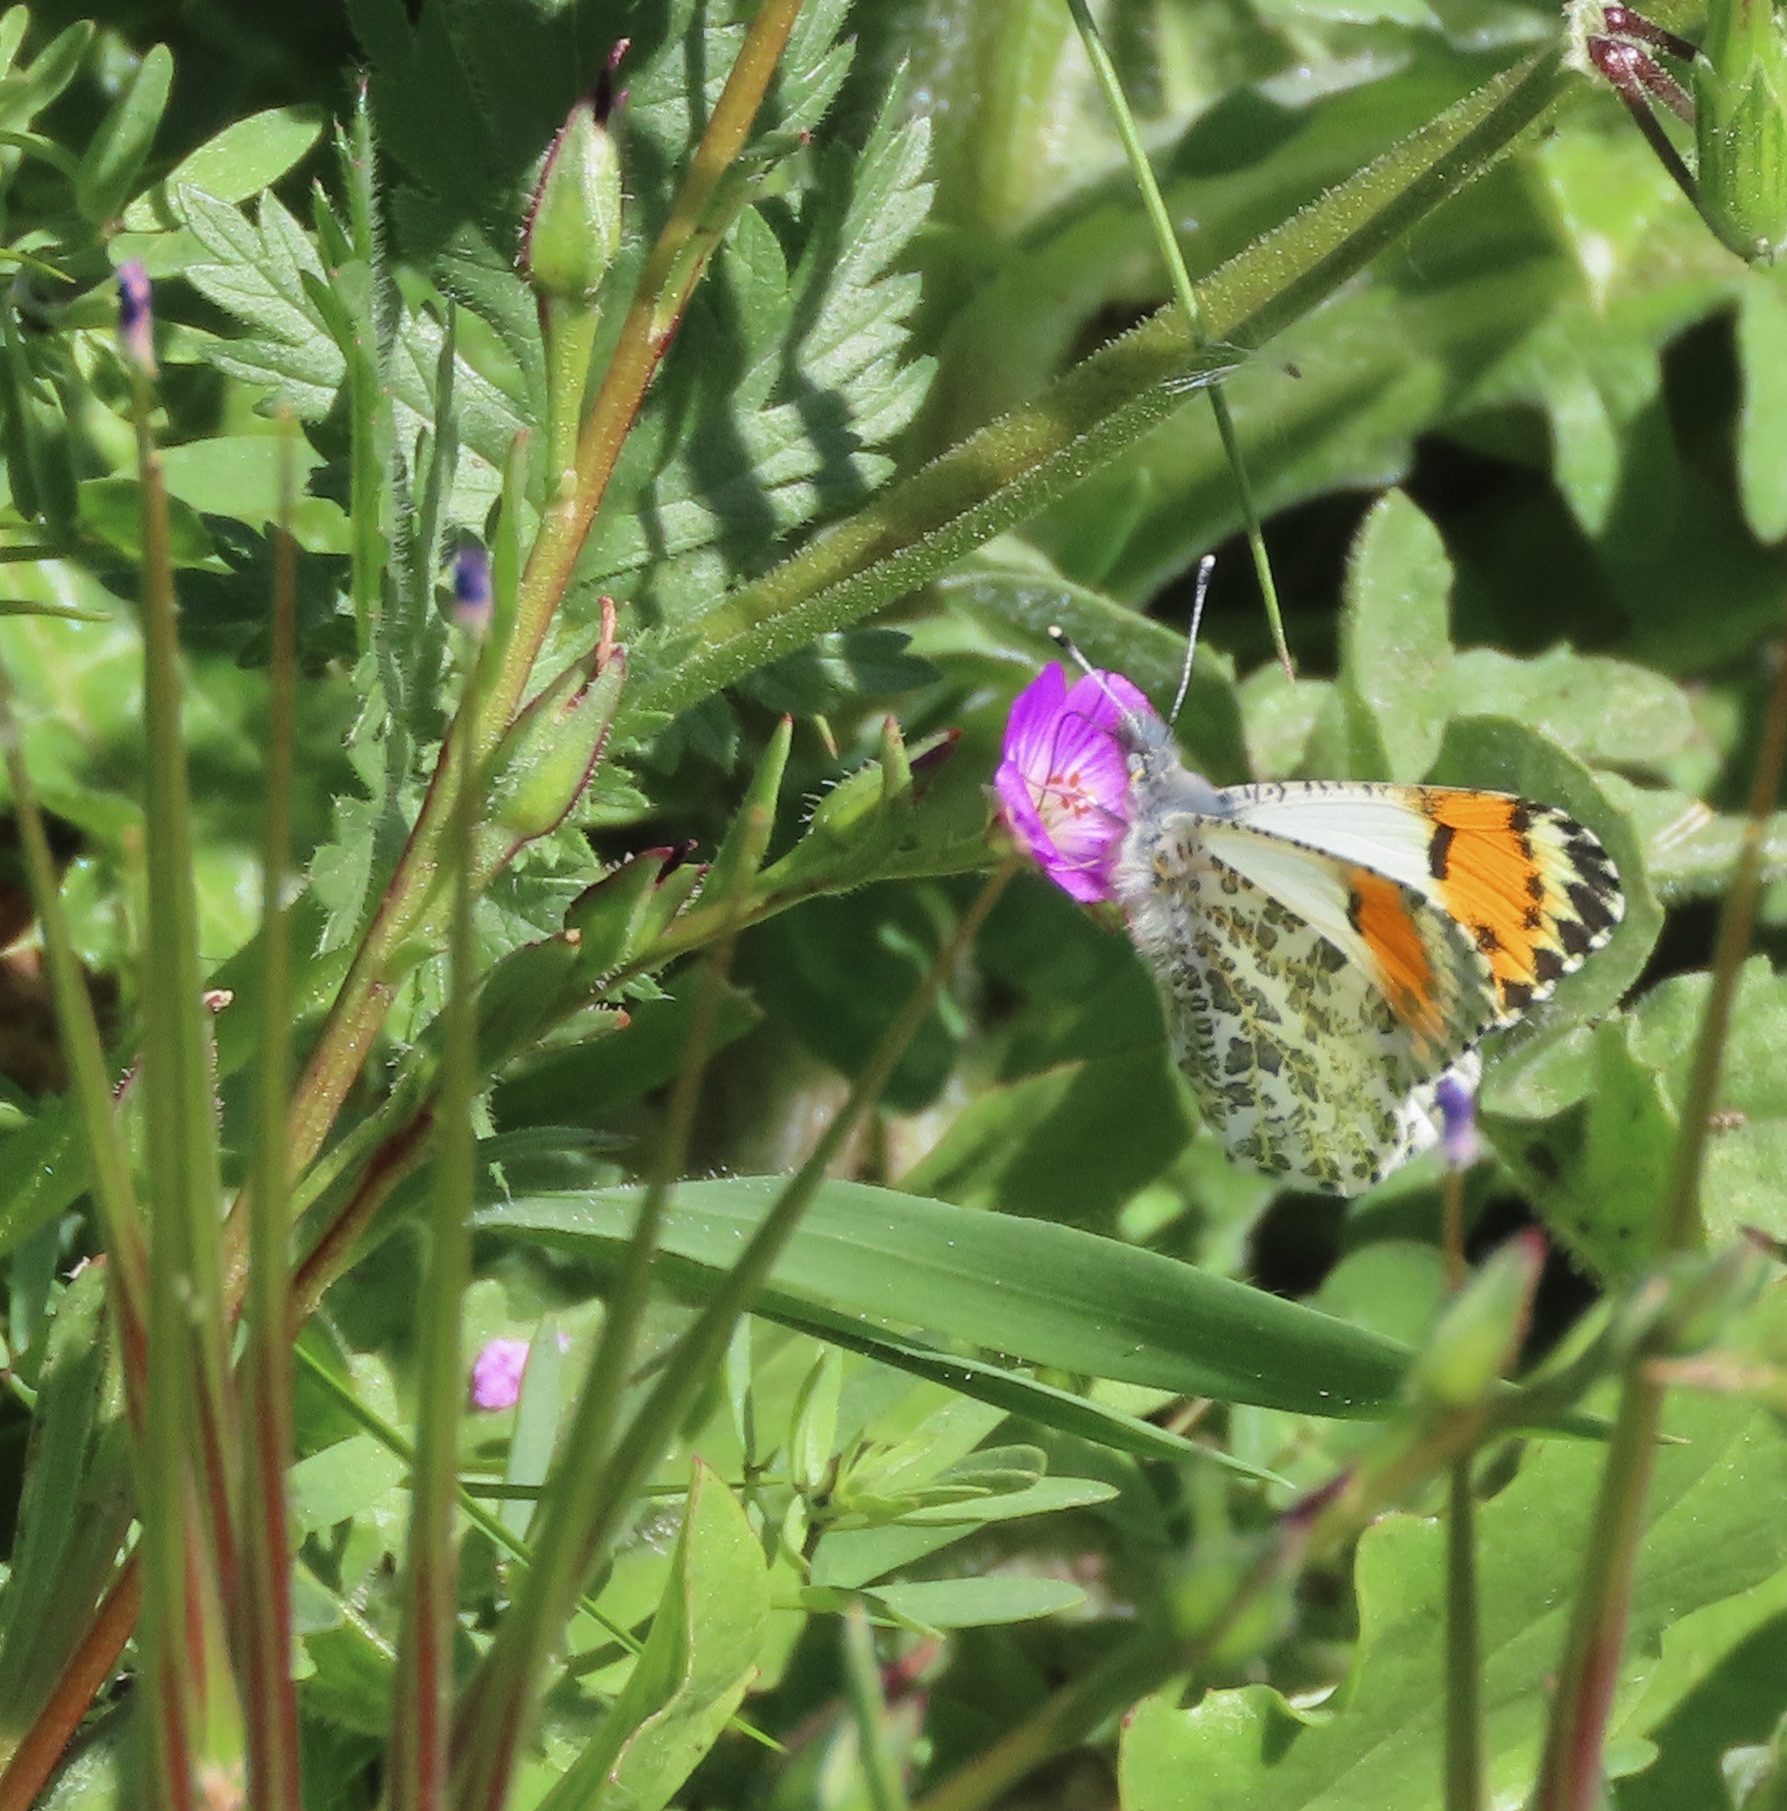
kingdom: Animalia
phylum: Arthropoda
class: Insecta
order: Lepidoptera
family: Pieridae
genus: Anthocharis
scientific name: Anthocharis sara
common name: Sara's orangetip
